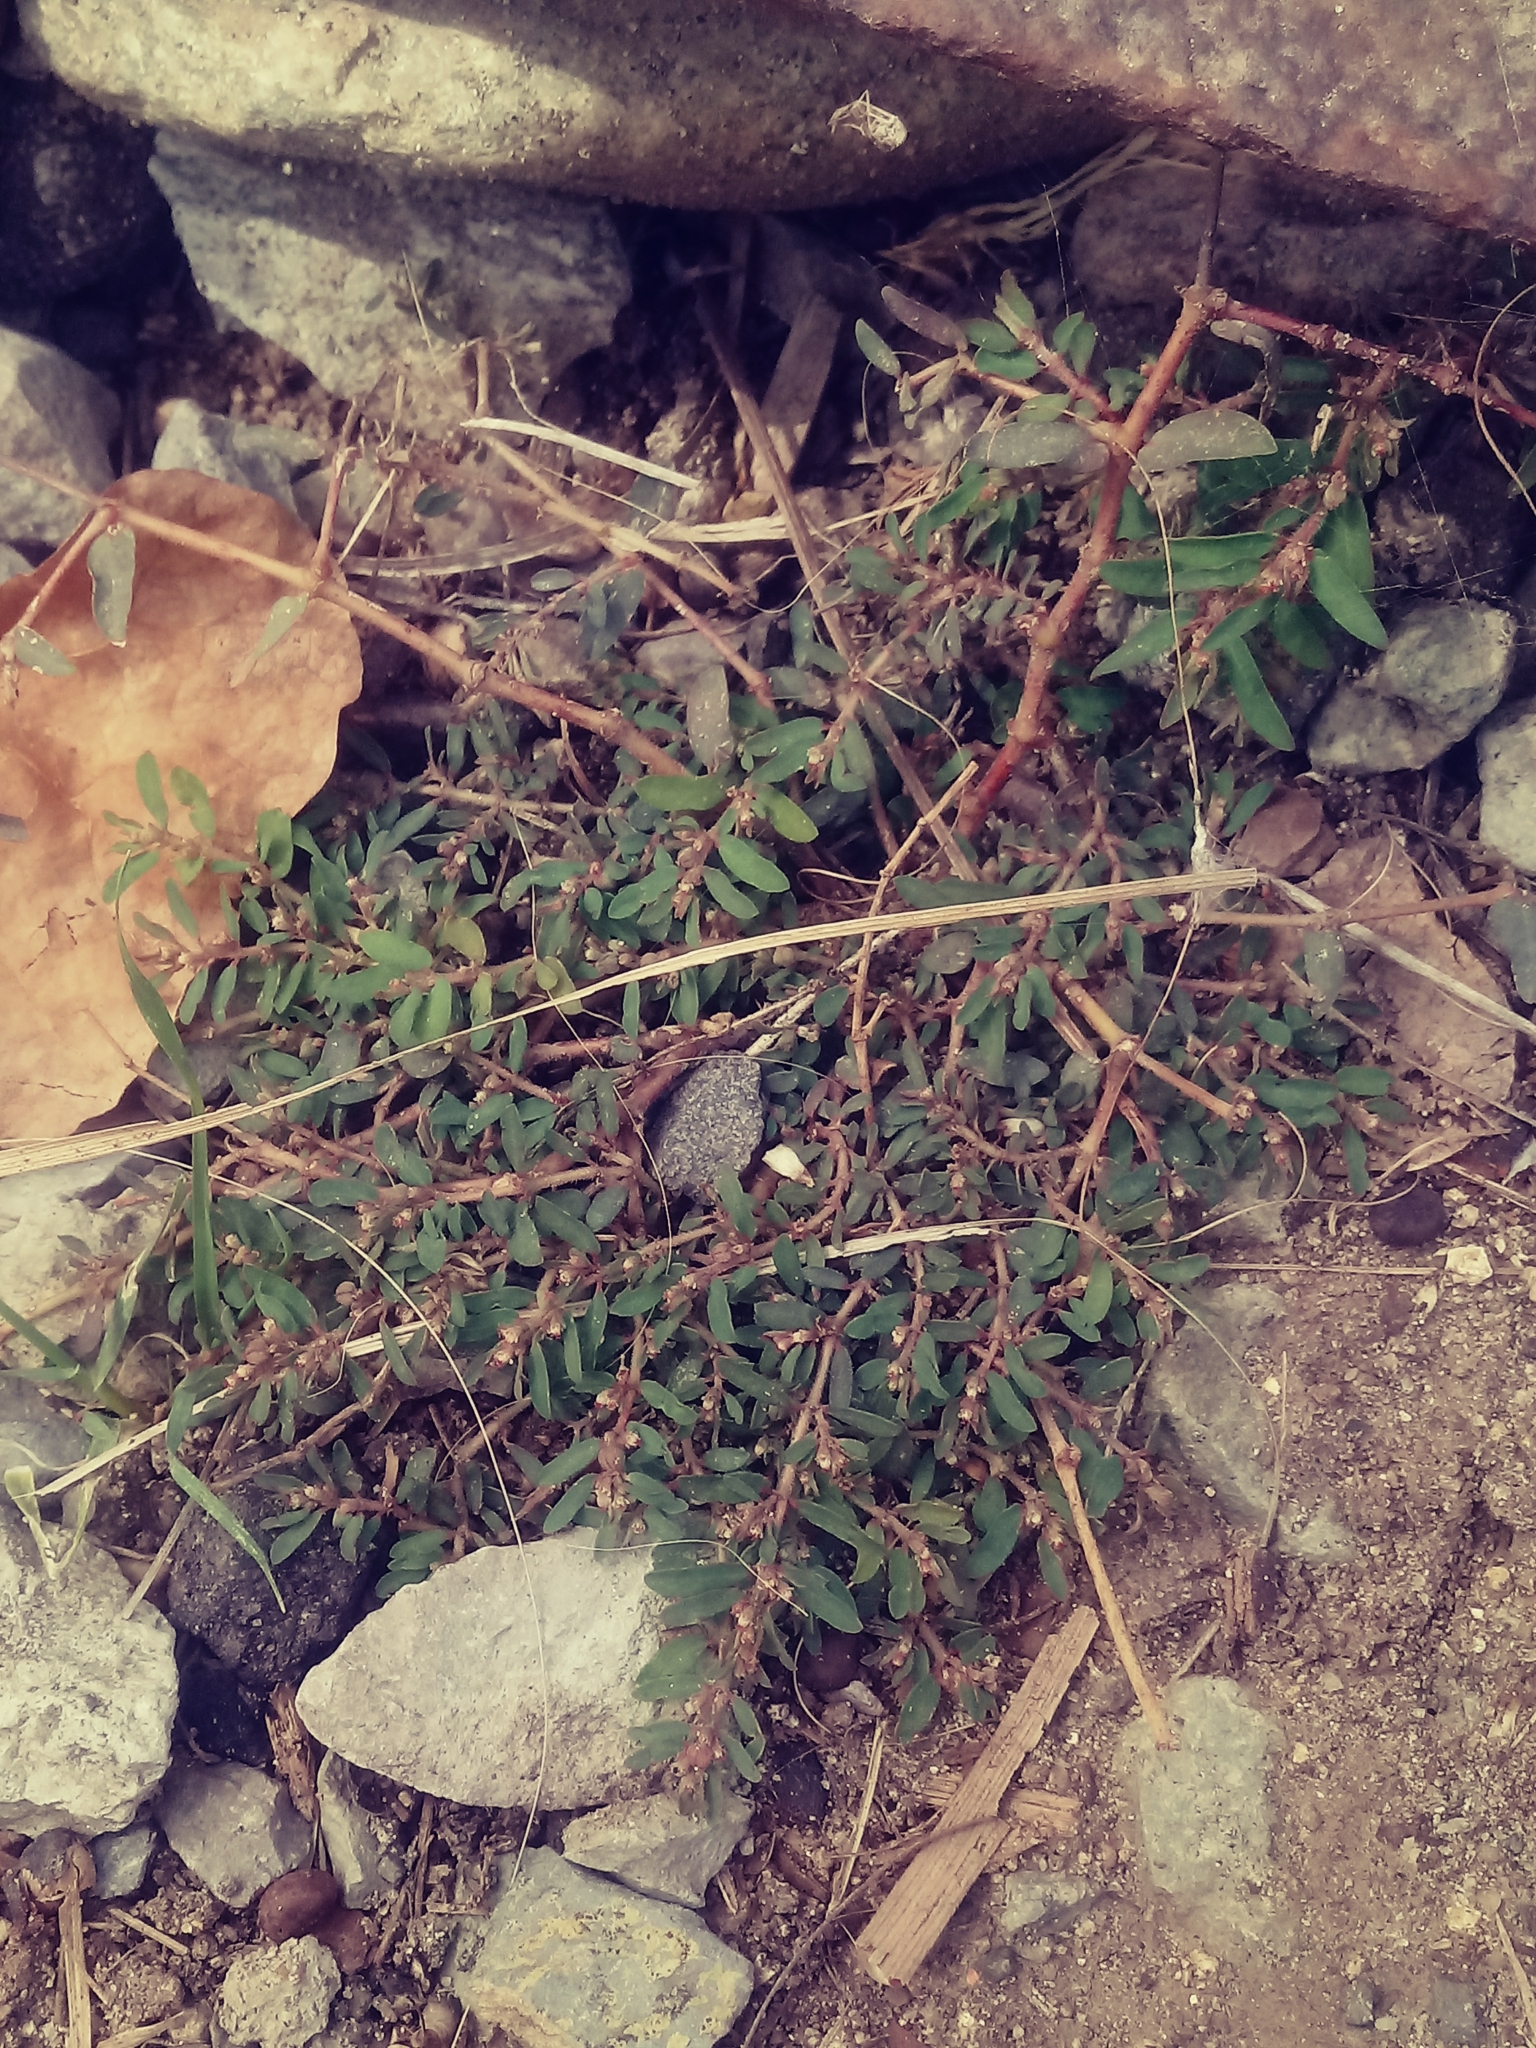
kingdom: Plantae
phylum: Tracheophyta
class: Magnoliopsida
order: Malpighiales
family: Euphorbiaceae
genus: Euphorbia
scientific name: Euphorbia maculata
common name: Spotted spurge
